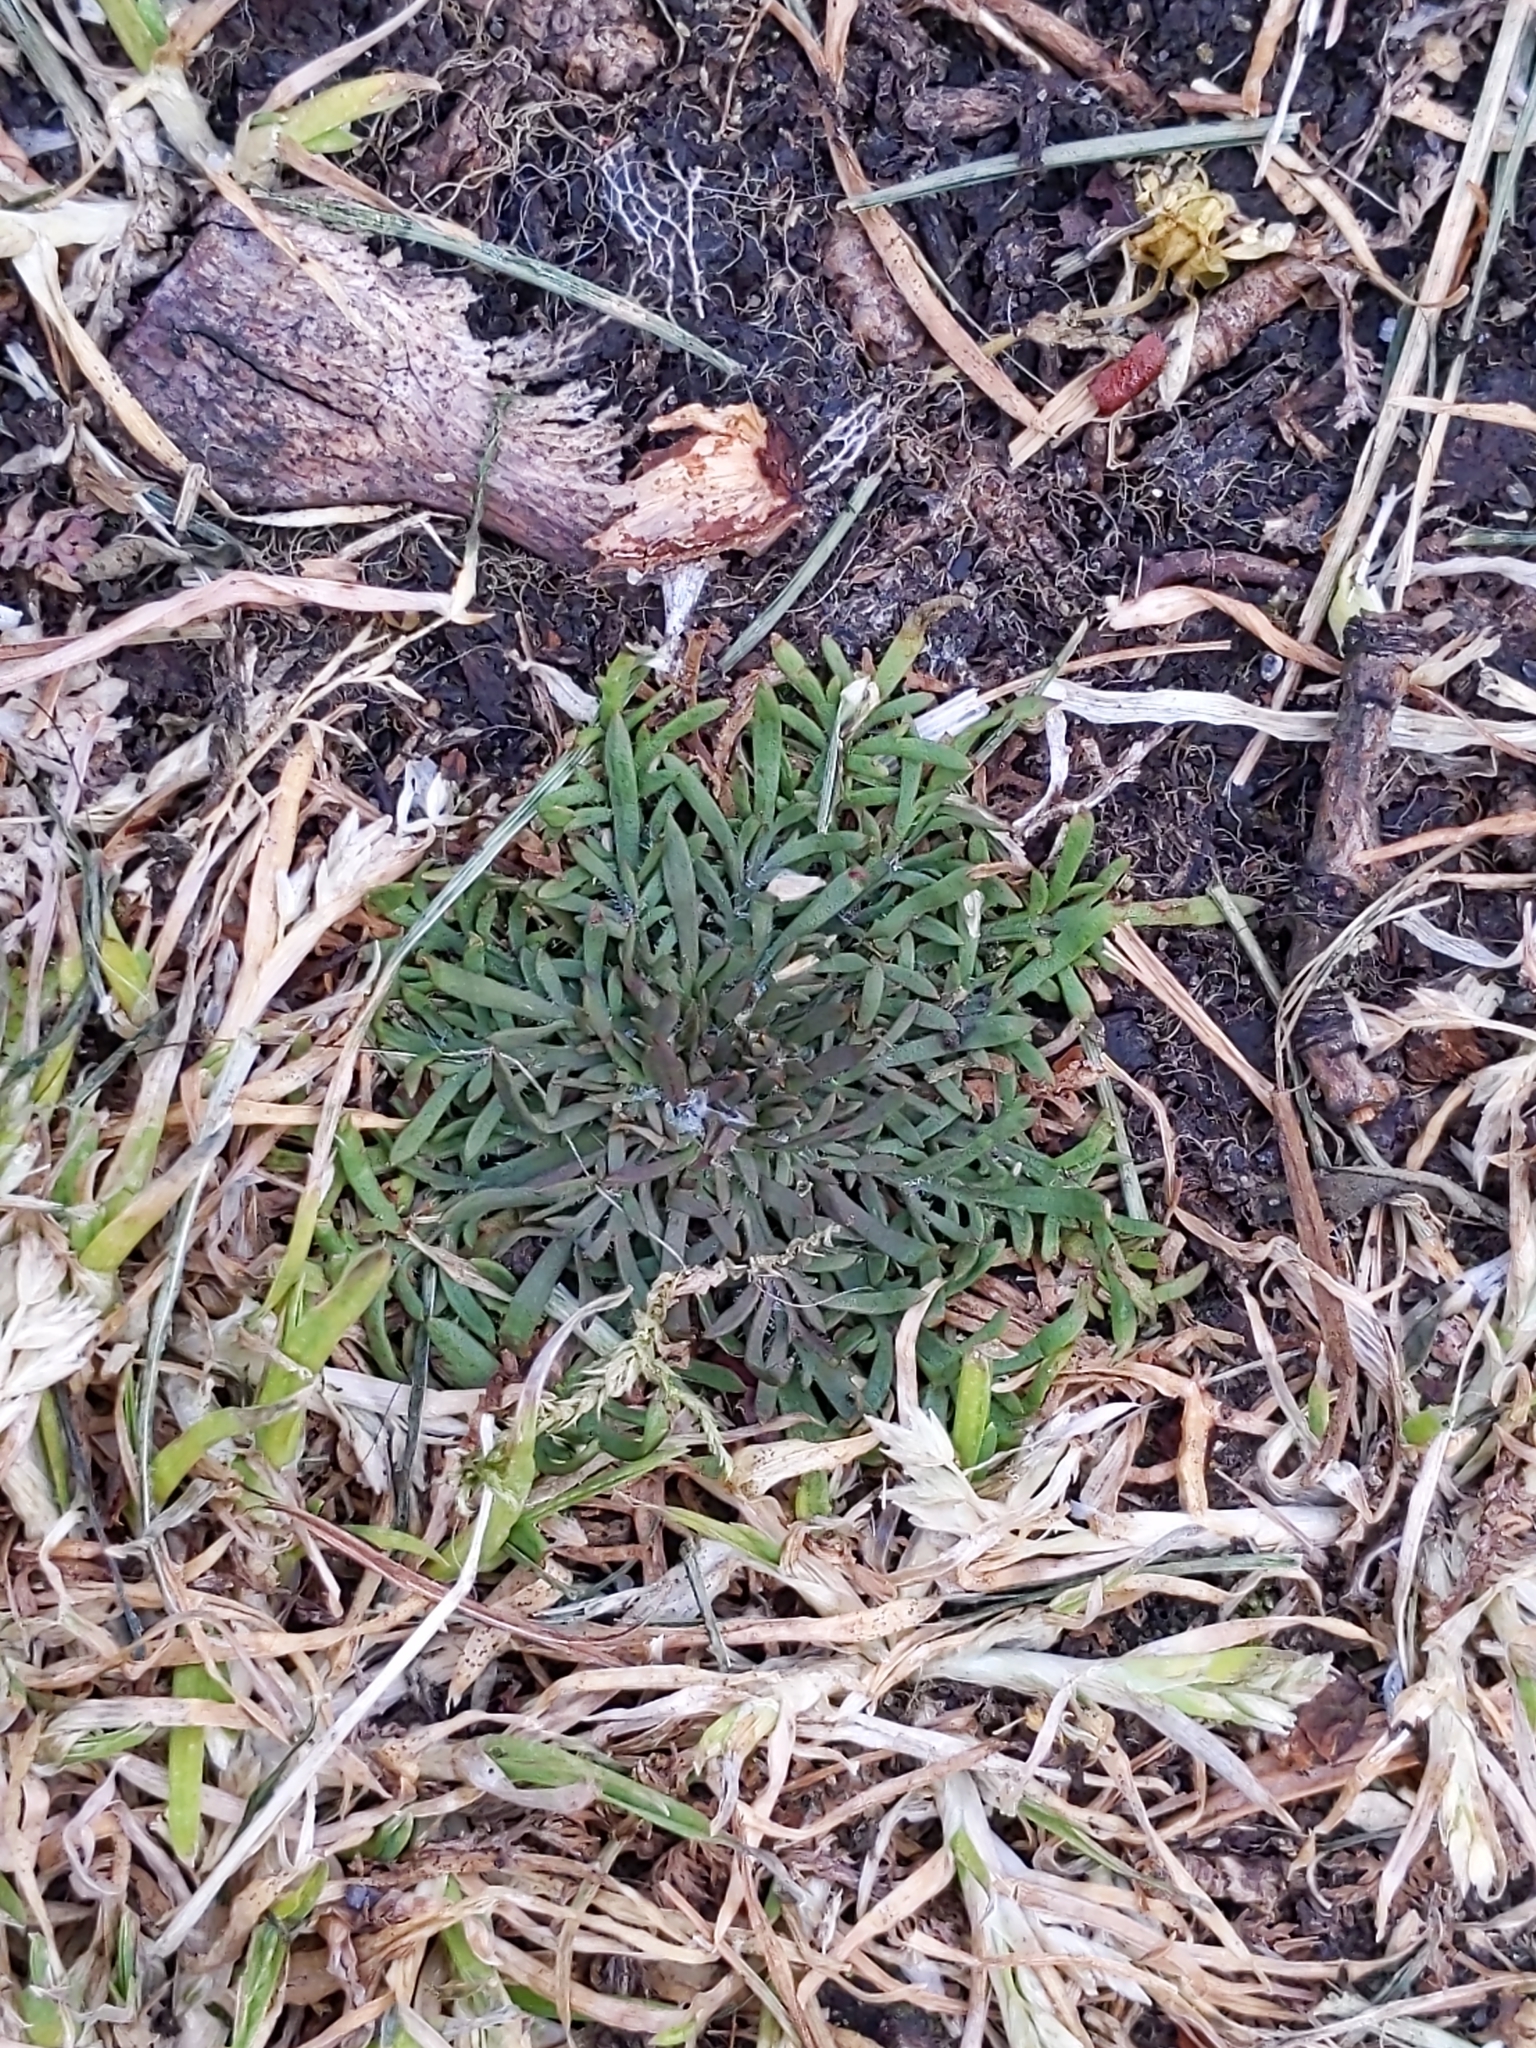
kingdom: Plantae
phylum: Tracheophyta
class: Magnoliopsida
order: Lamiales
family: Plantaginaceae
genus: Plantago
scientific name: Plantago coronopus
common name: Buck's-horn plantain
